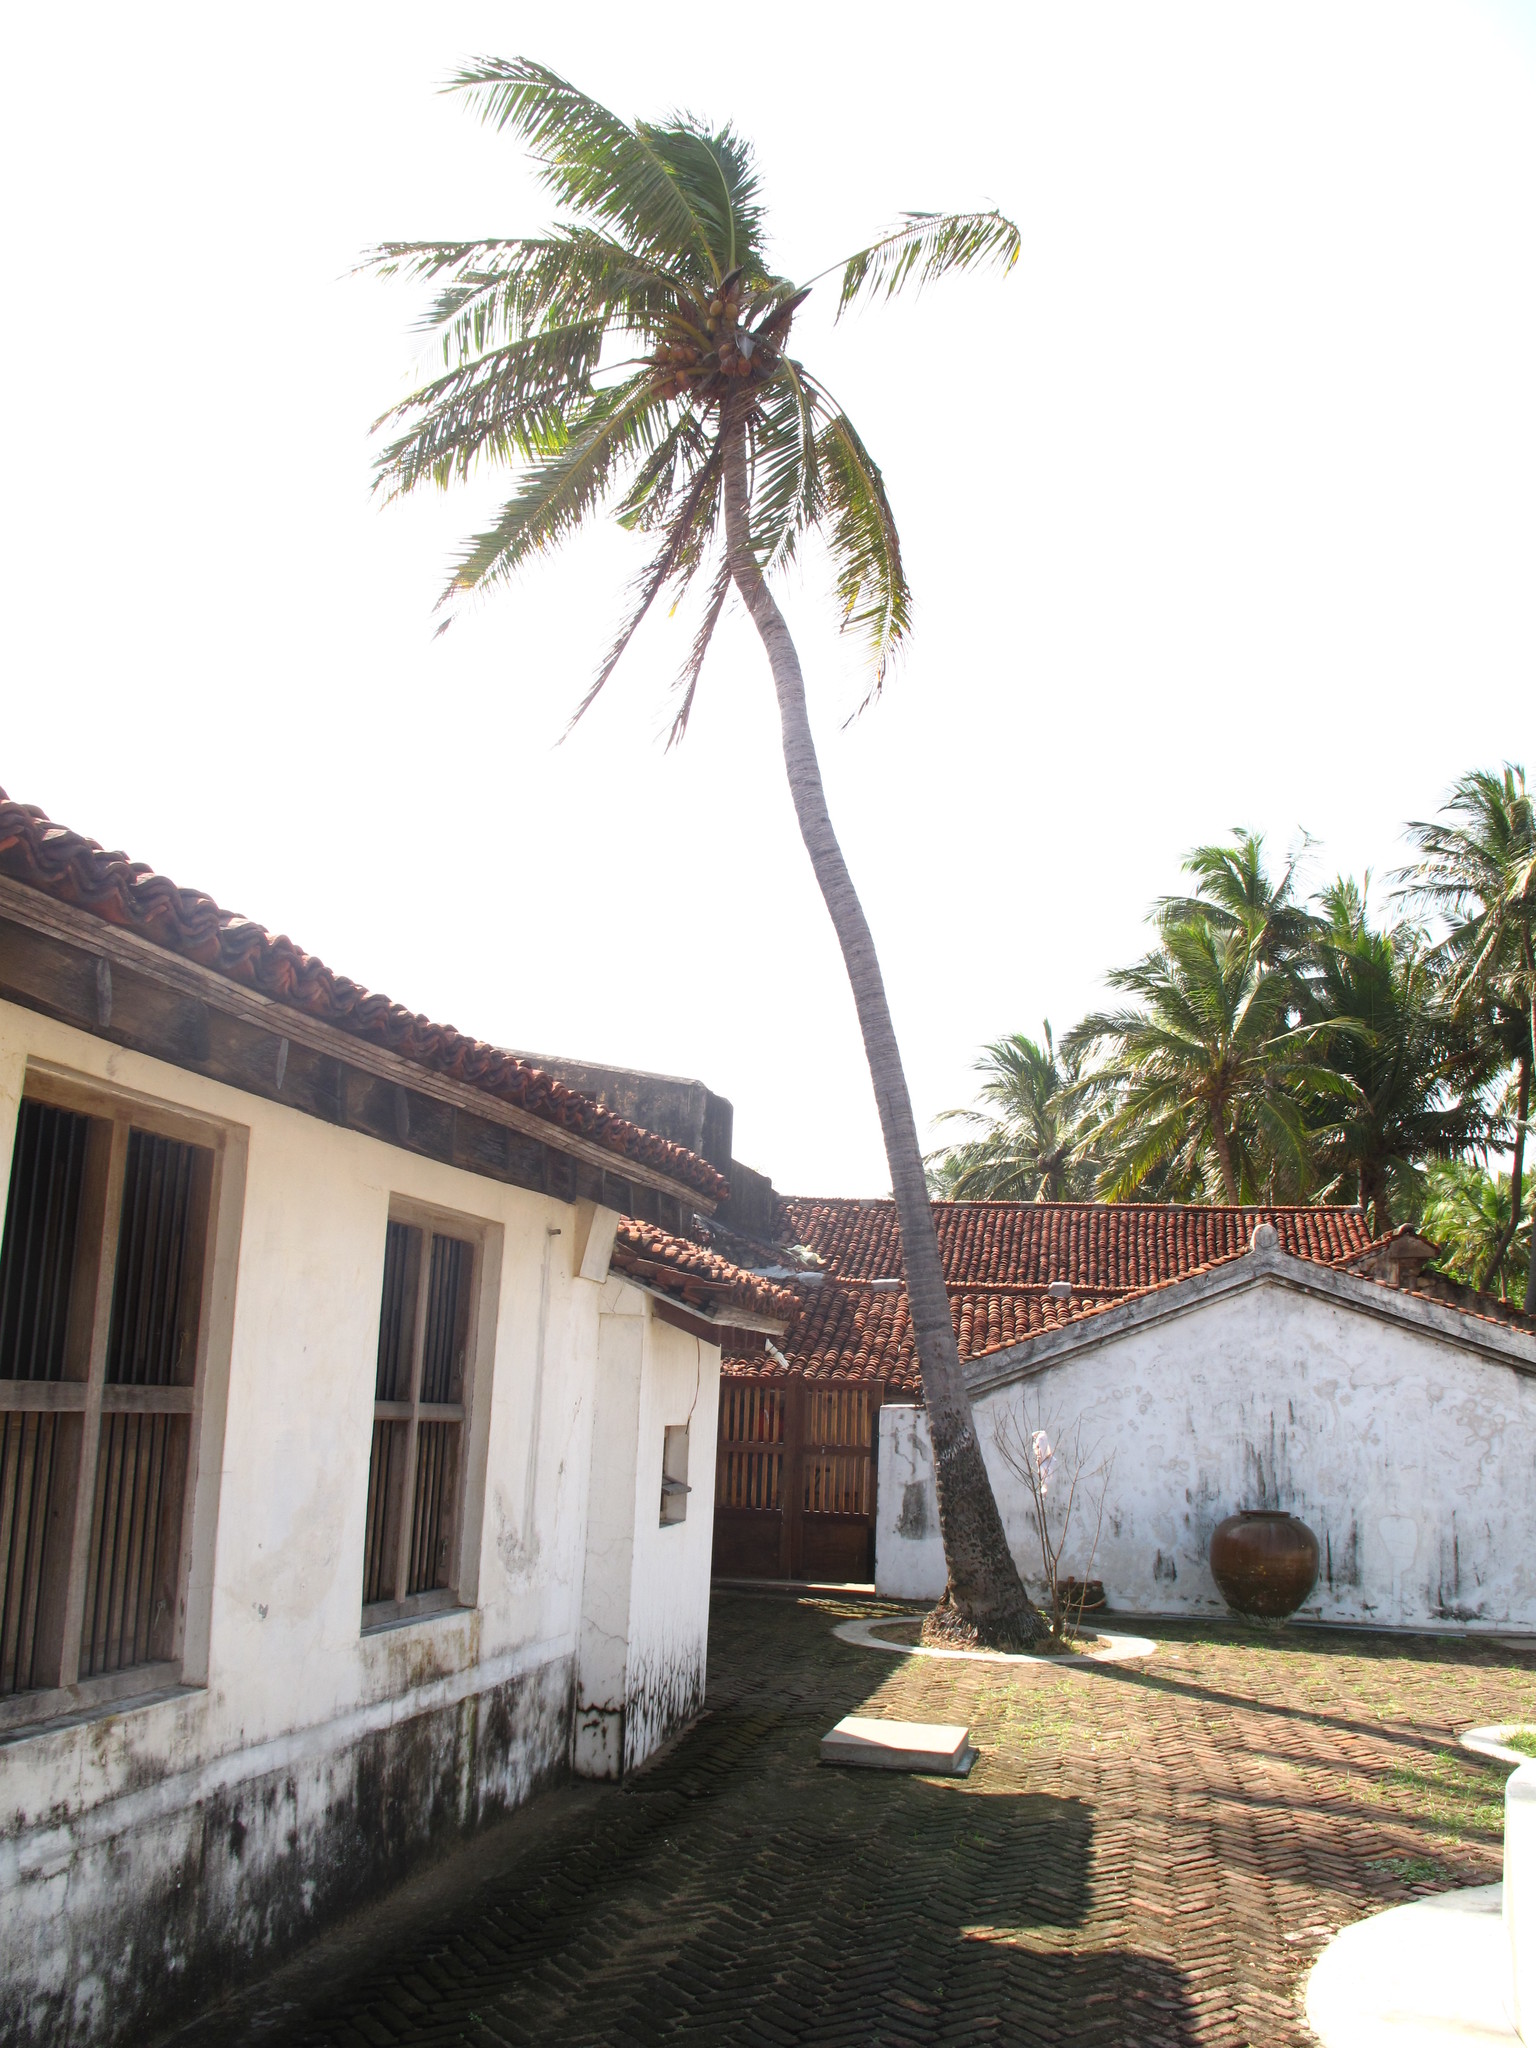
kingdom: Plantae
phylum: Tracheophyta
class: Liliopsida
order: Arecales
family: Arecaceae
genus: Cocos
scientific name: Cocos nucifera
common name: Coconut palm
